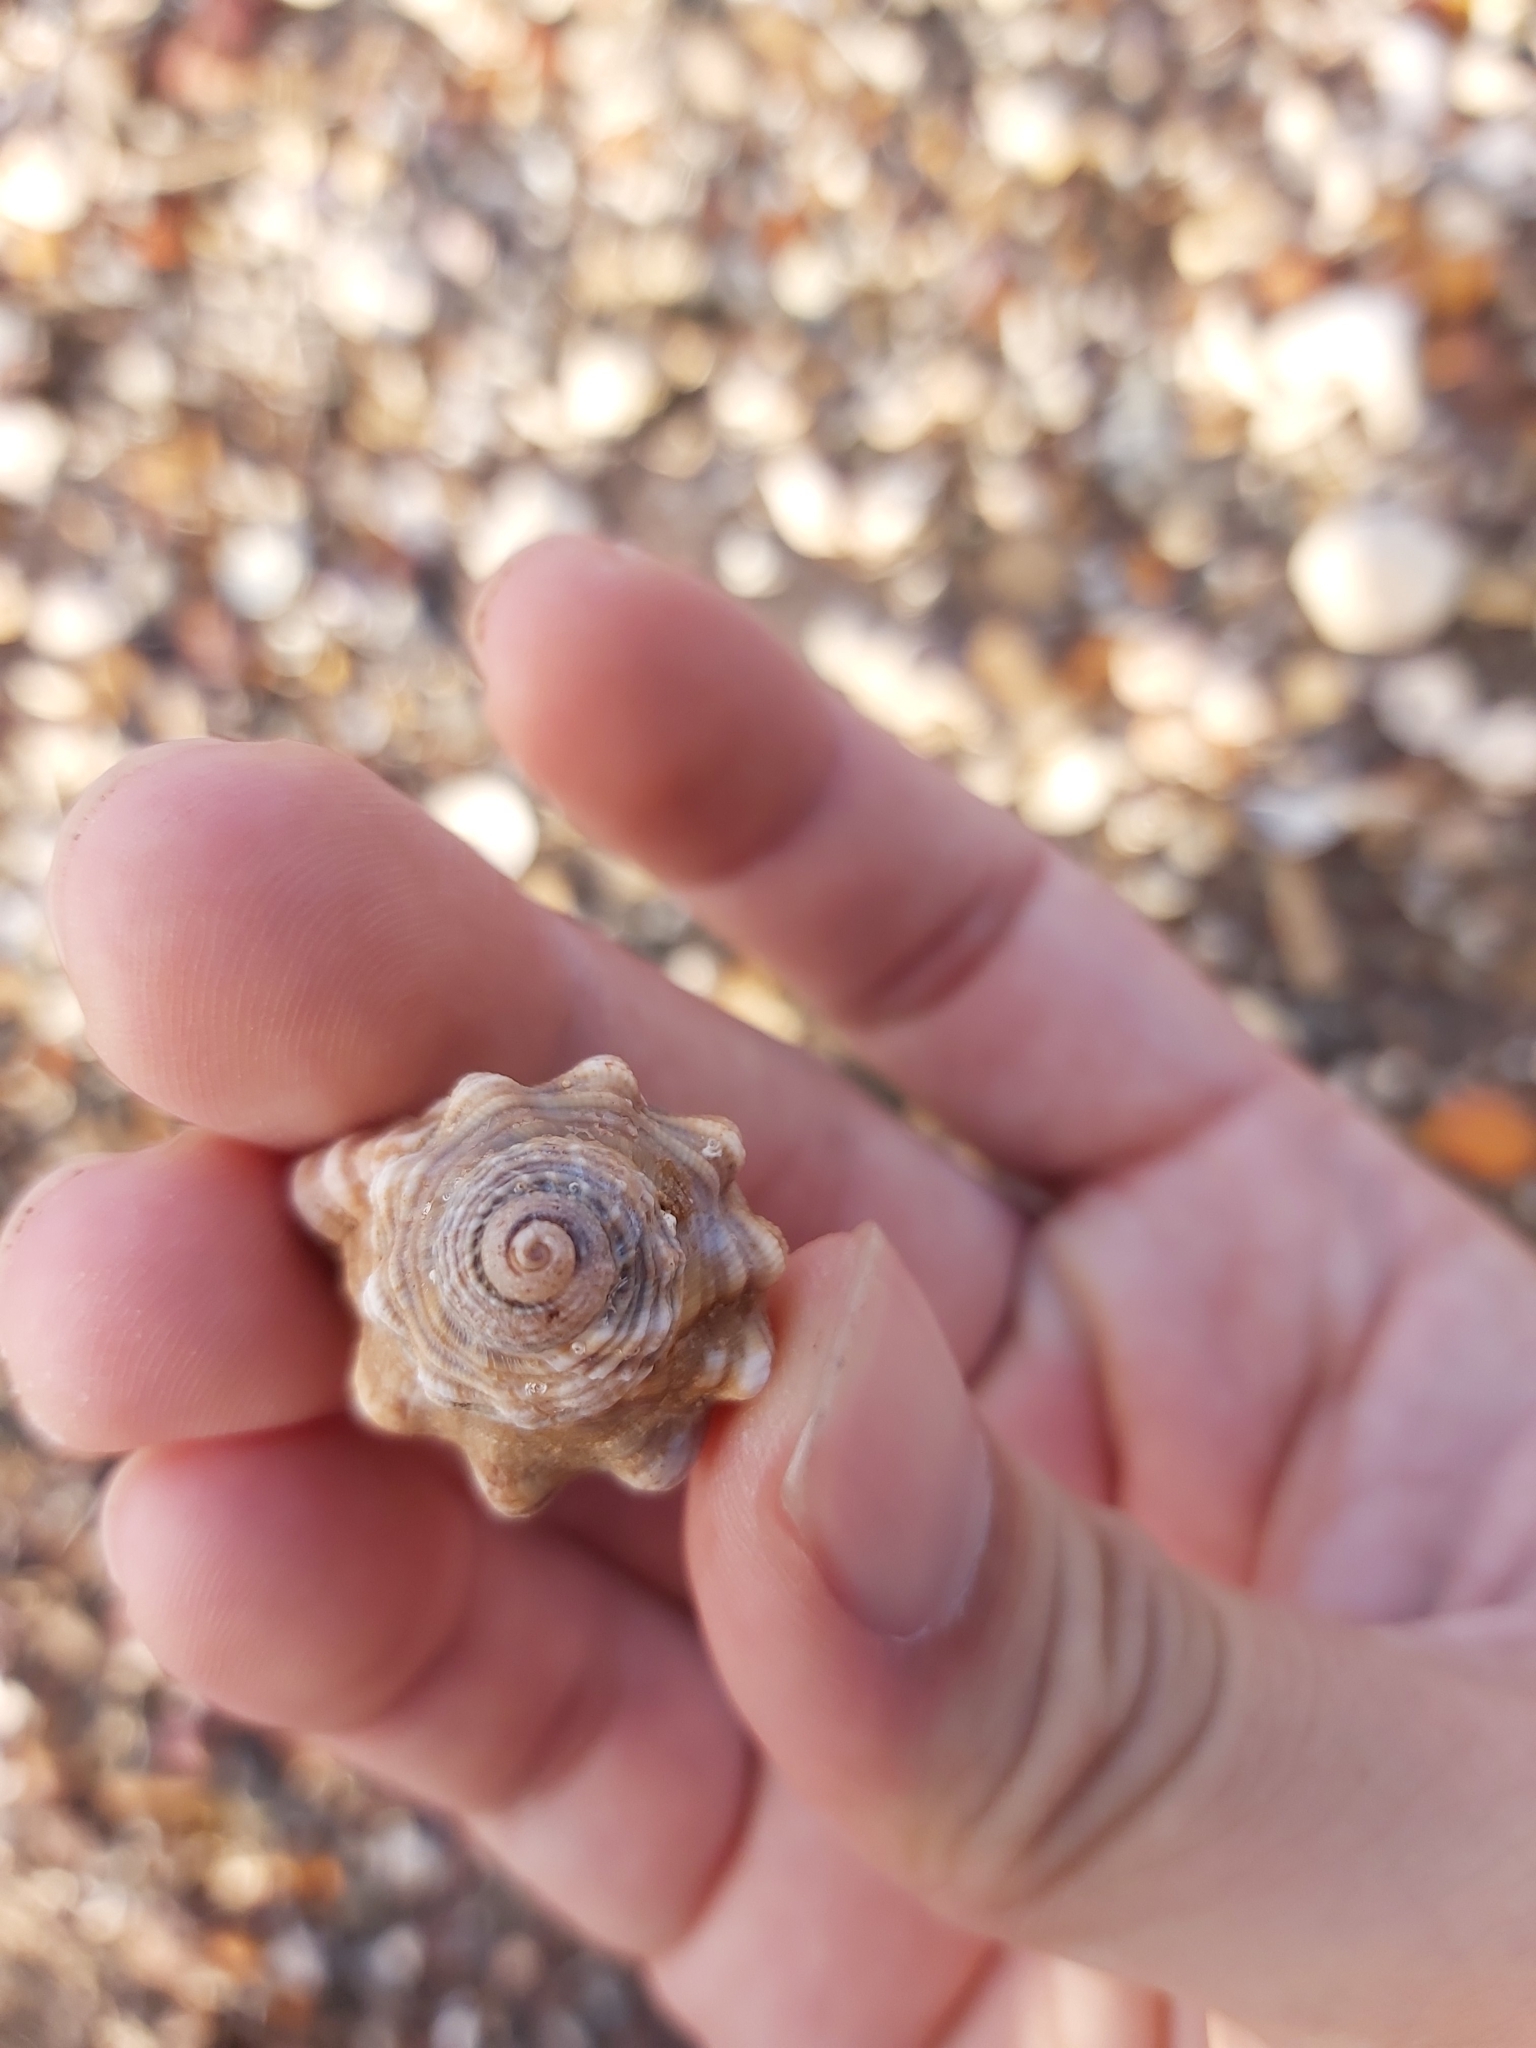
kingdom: Animalia
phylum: Mollusca
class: Gastropoda
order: Littorinimorpha
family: Cymatiidae
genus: Cabestana
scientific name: Cabestana spengleri
